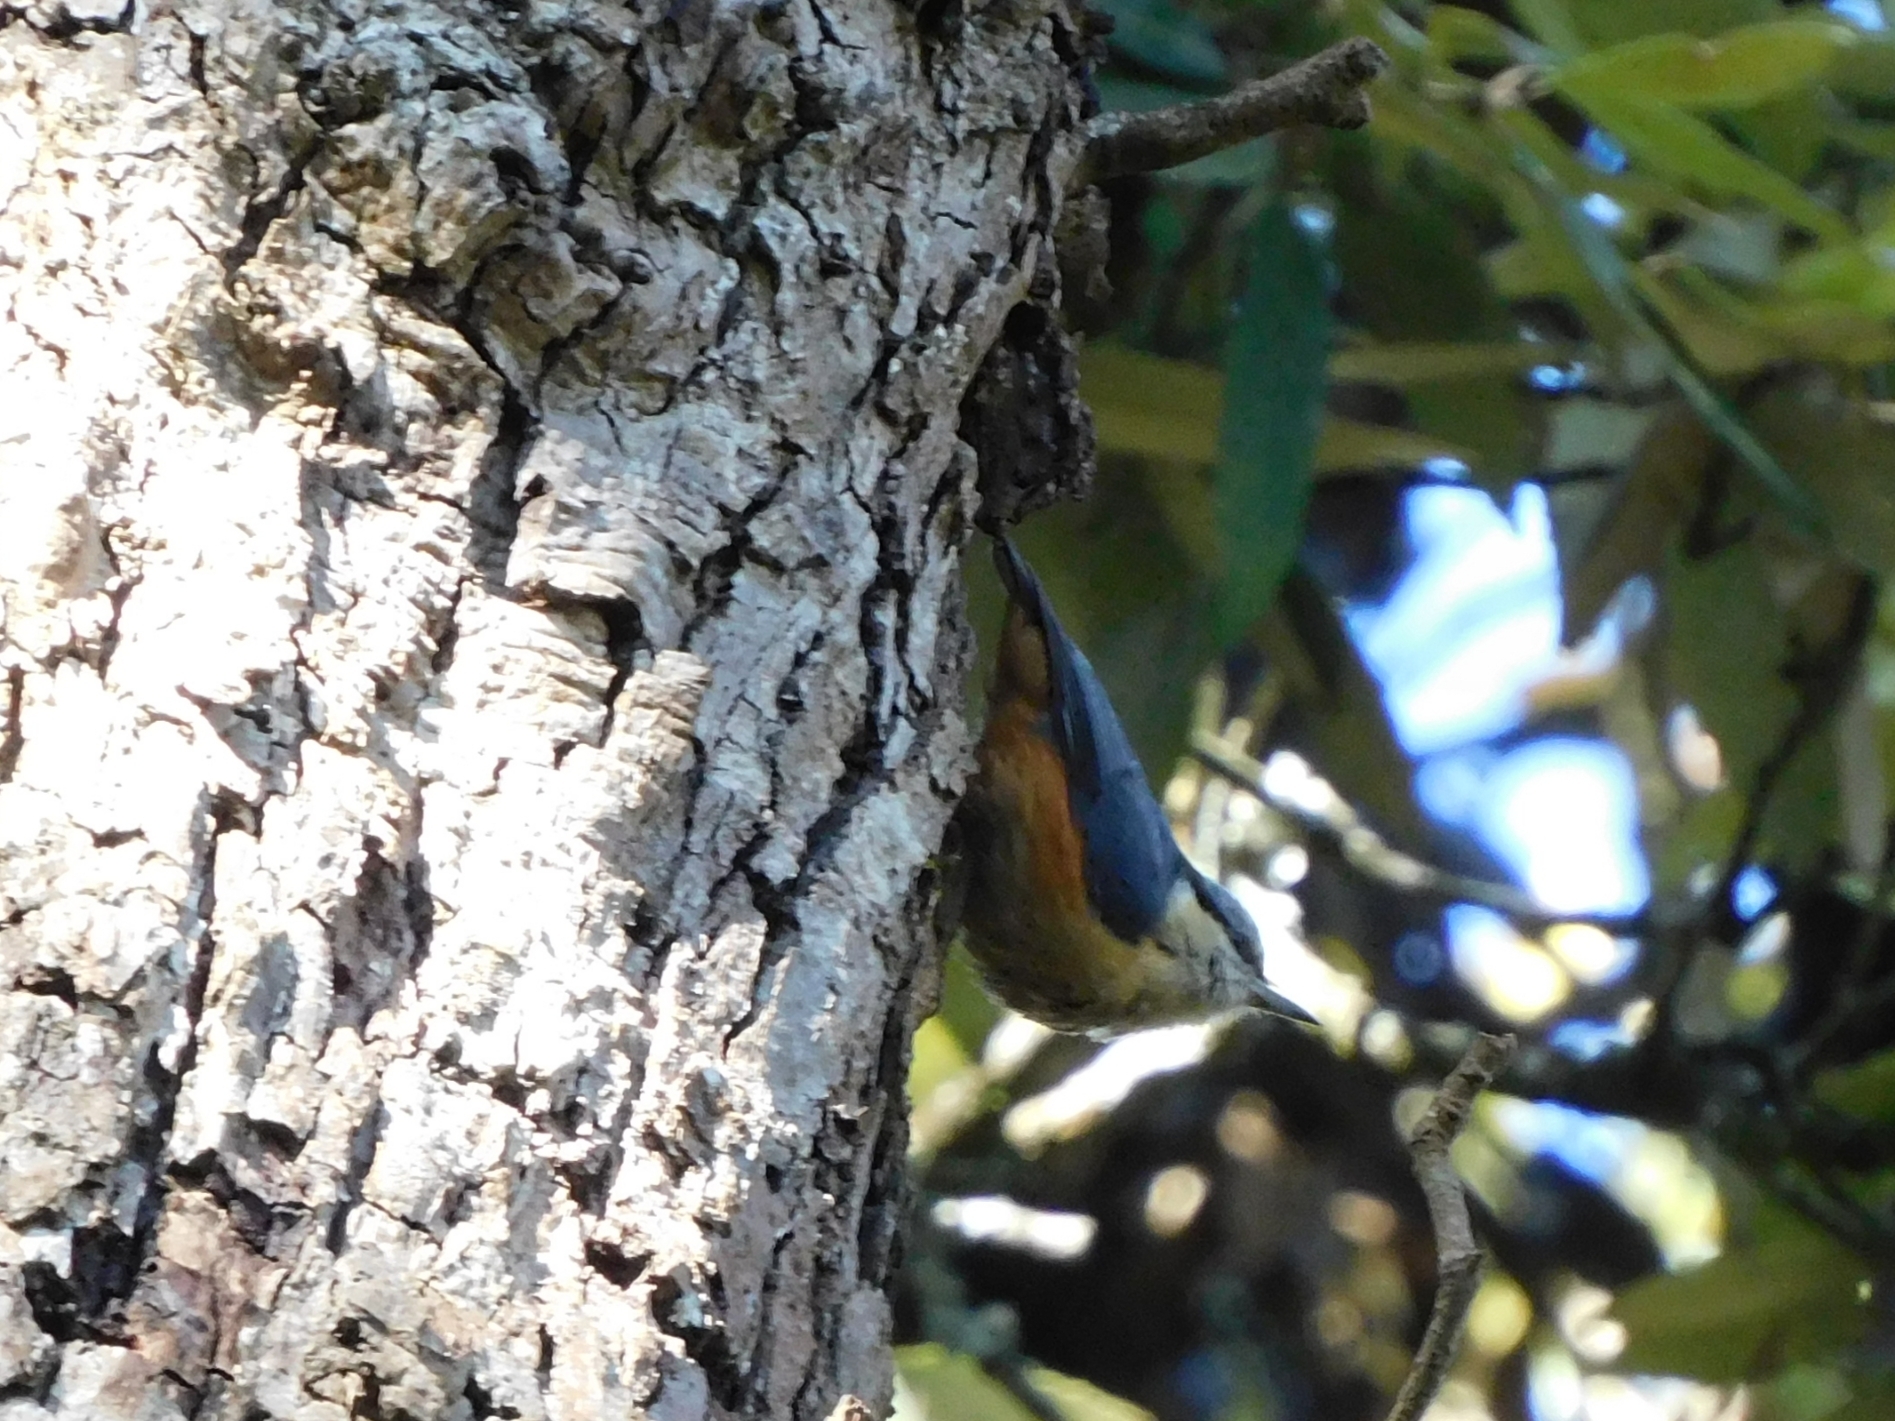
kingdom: Animalia
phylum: Chordata
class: Aves
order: Passeriformes
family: Sittidae
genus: Sitta
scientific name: Sitta himalayensis
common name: White-tailed nuthatch
